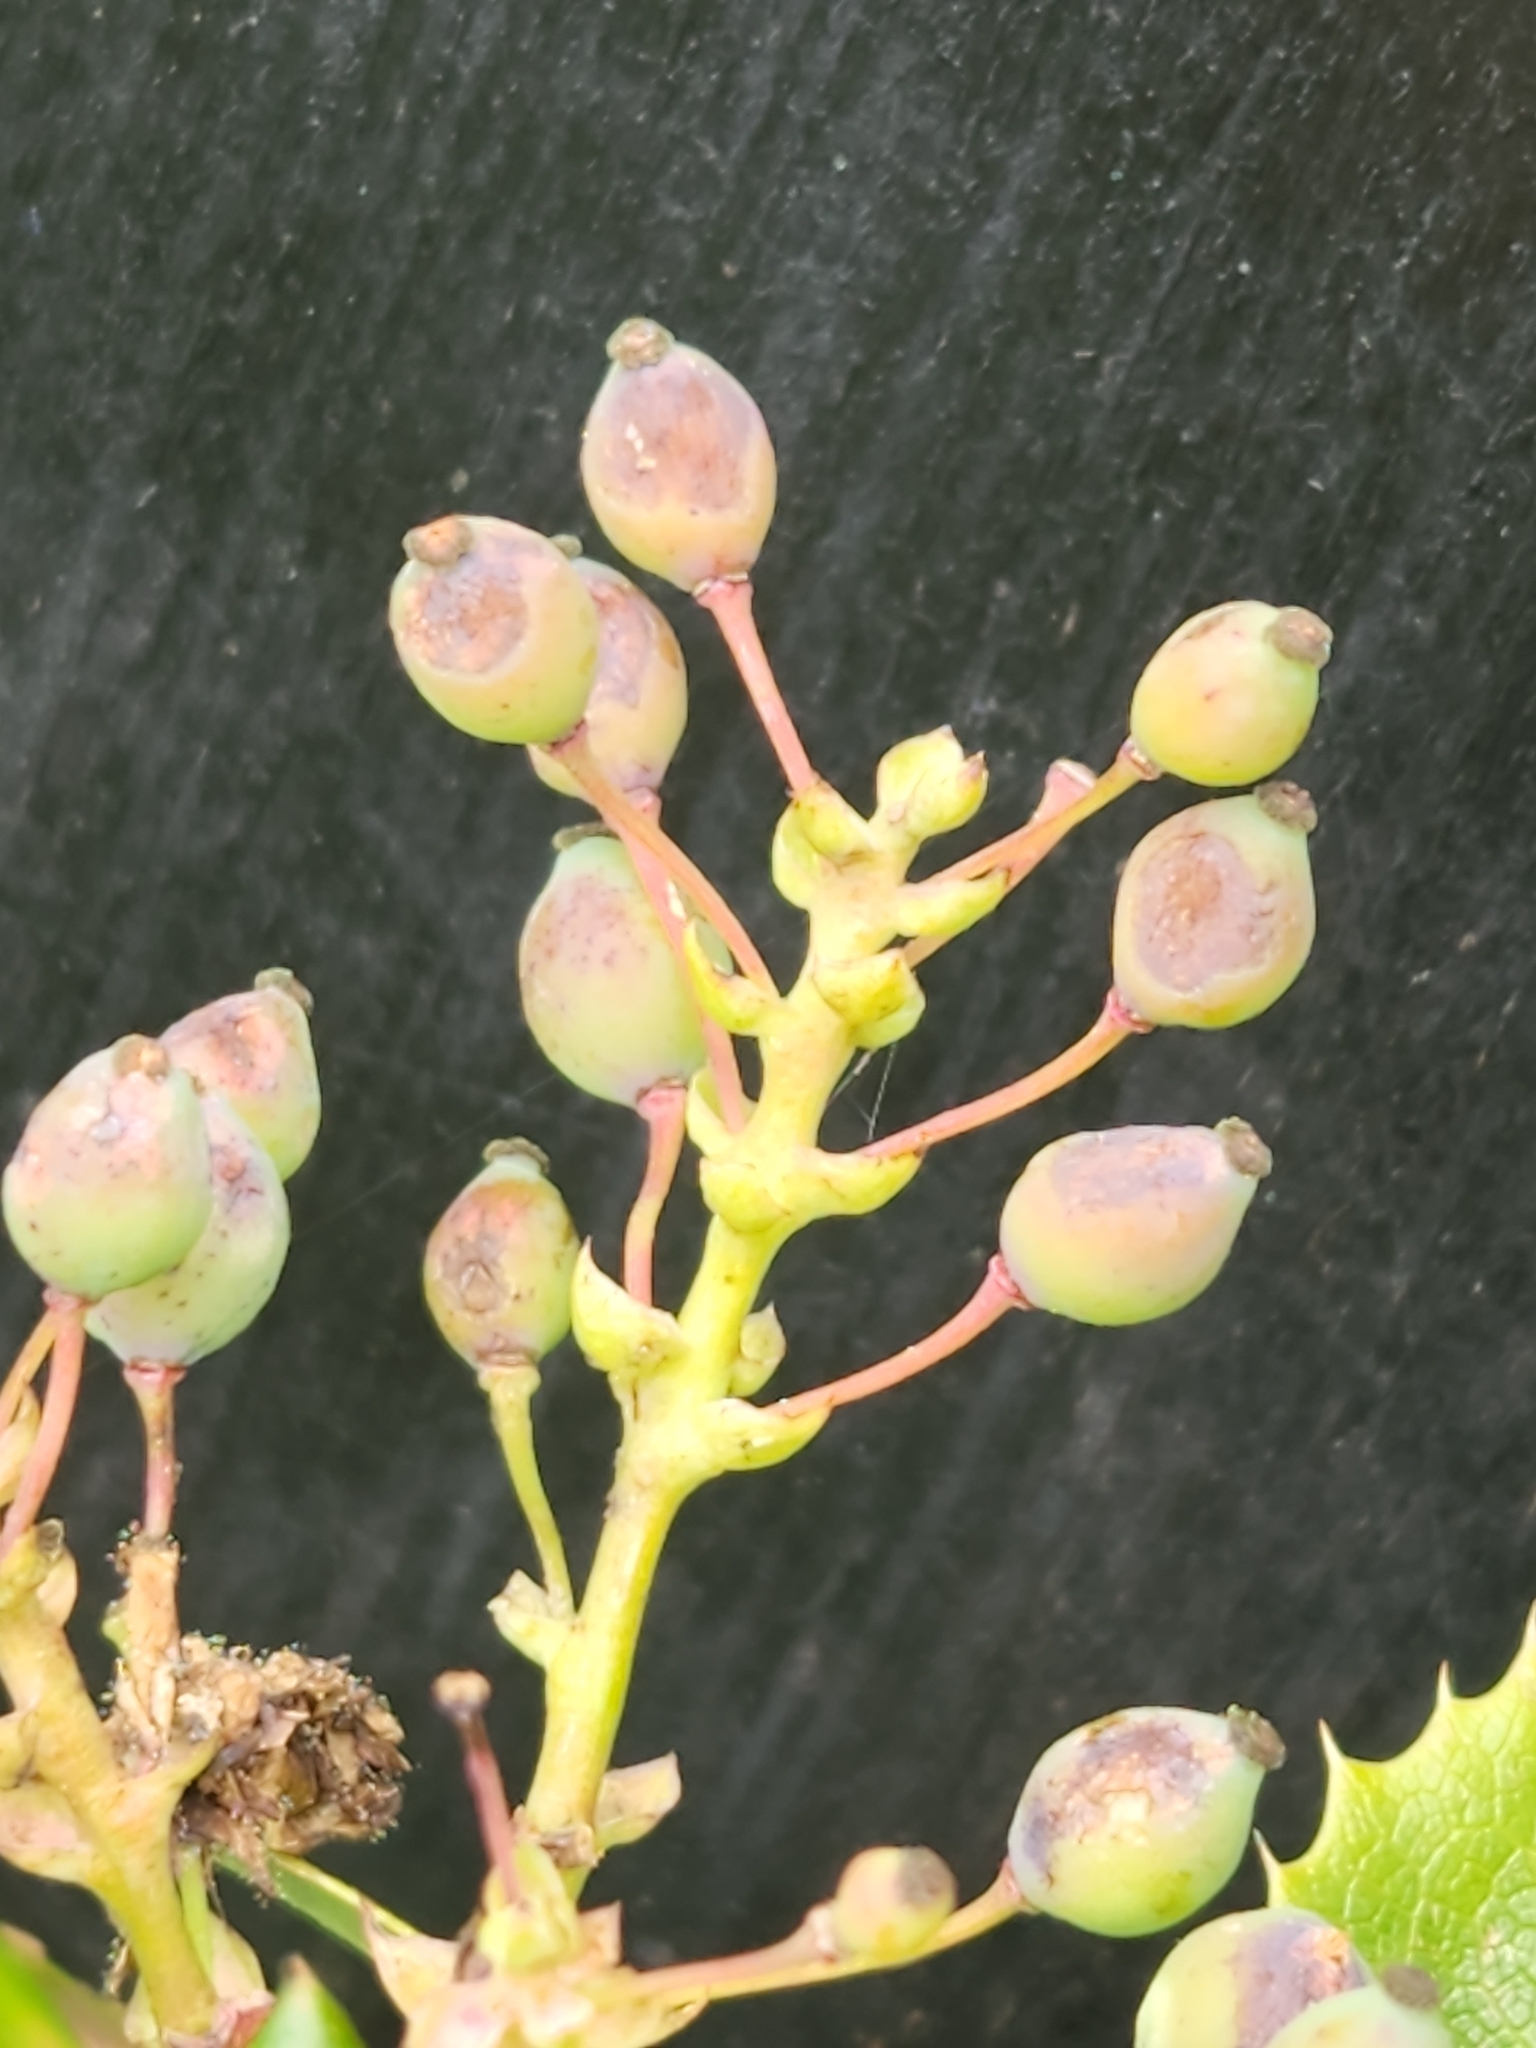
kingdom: Plantae
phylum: Tracheophyta
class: Magnoliopsida
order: Ranunculales
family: Berberidaceae
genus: Mahonia
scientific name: Mahonia aquifolium
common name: Oregon-grape
